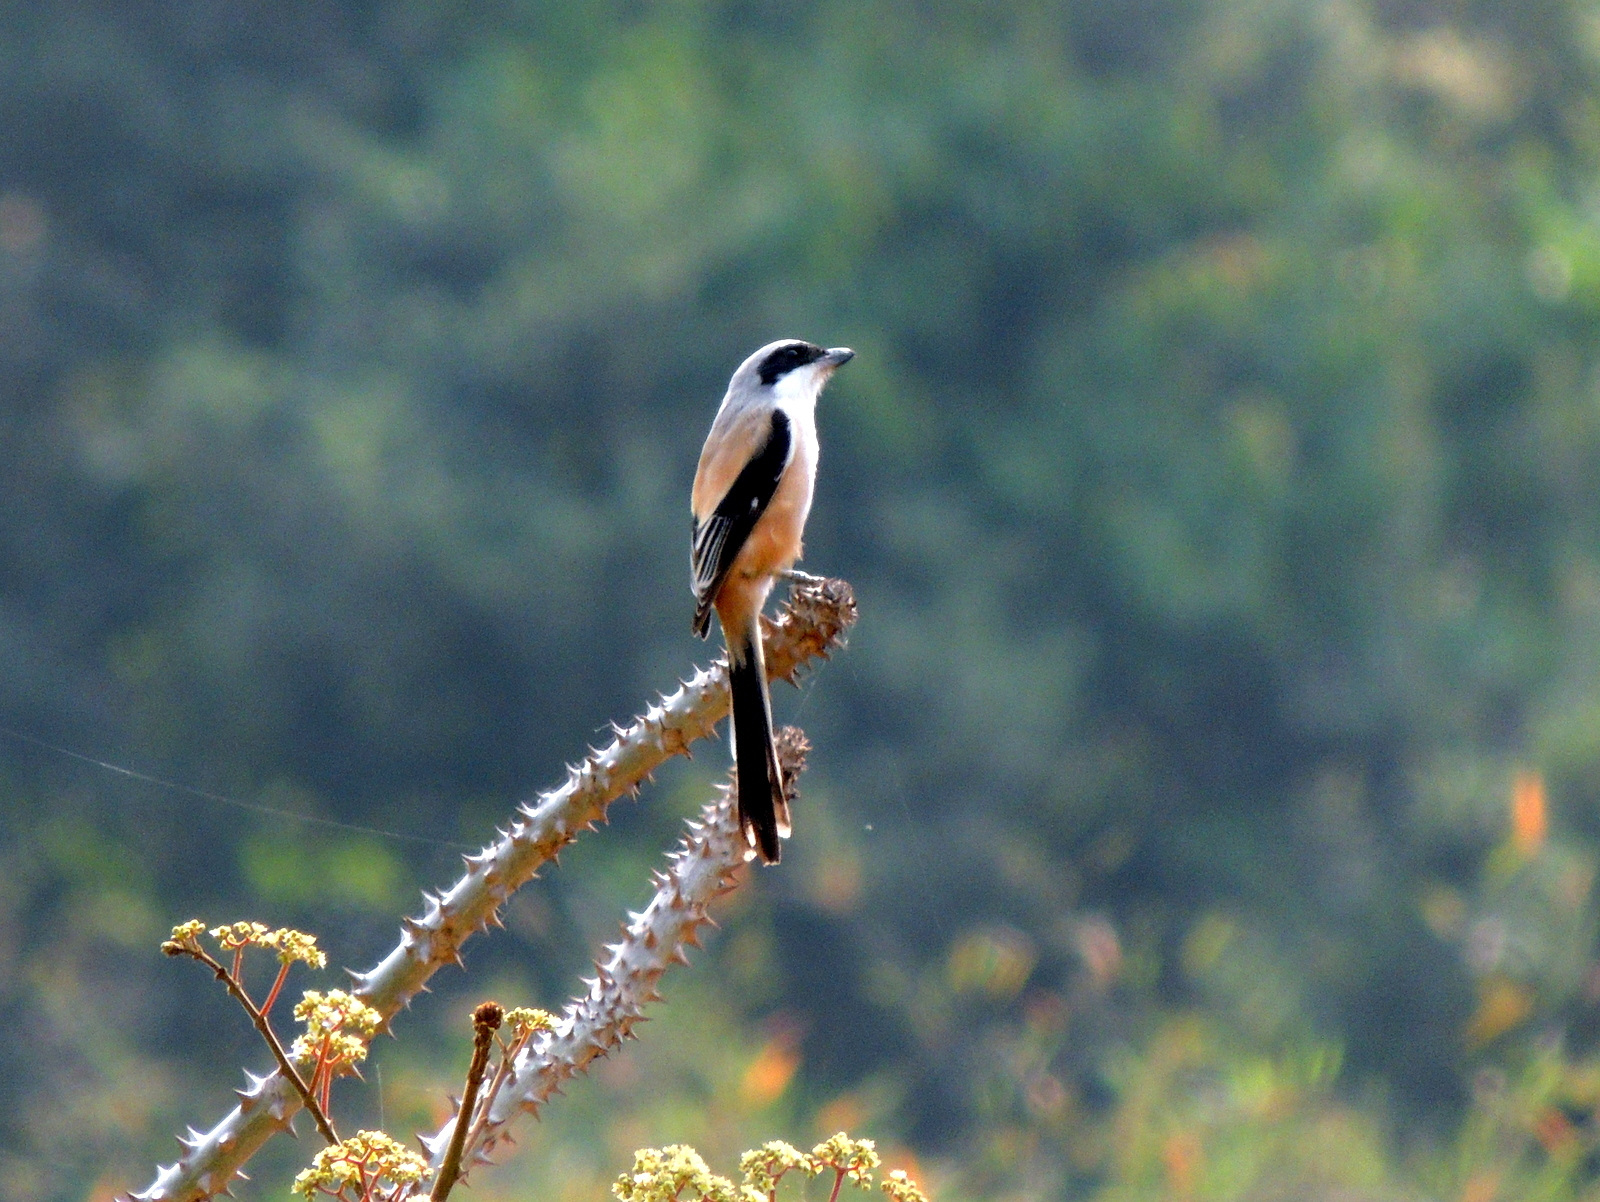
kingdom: Animalia
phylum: Chordata
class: Aves
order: Passeriformes
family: Laniidae
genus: Lanius
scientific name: Lanius schach
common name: Long-tailed shrike
